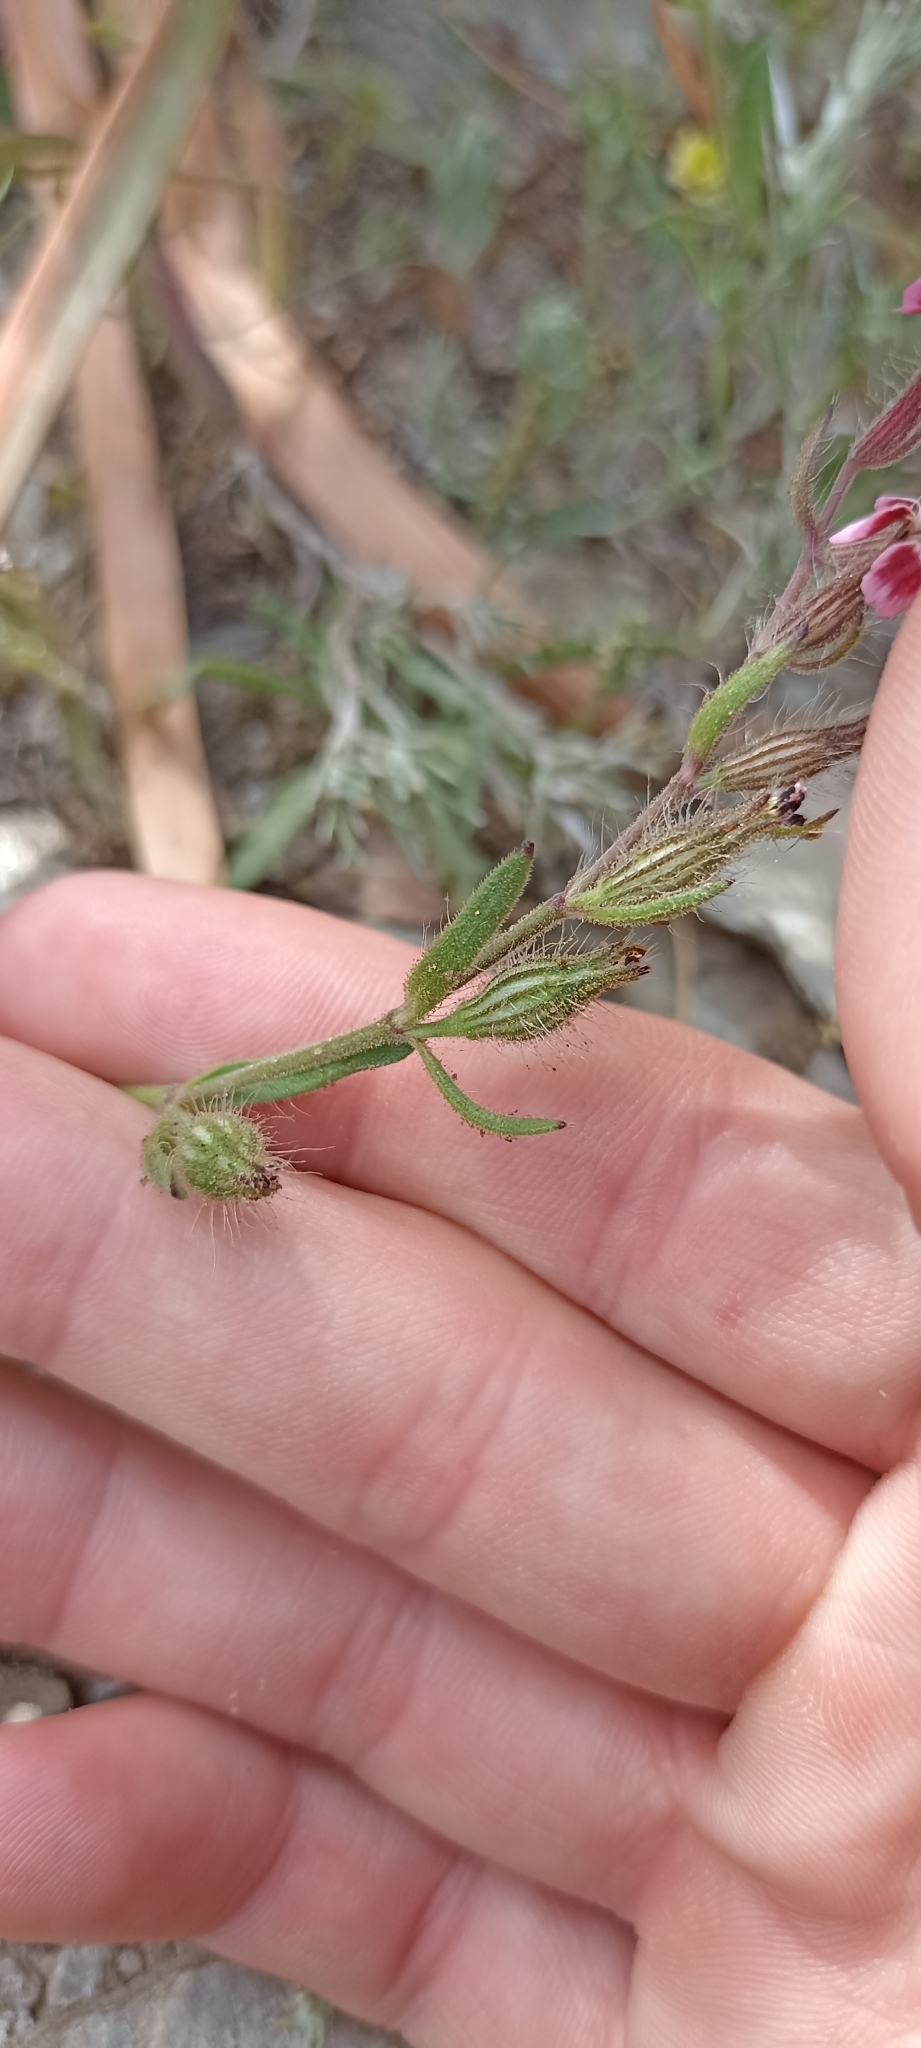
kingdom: Plantae
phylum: Tracheophyta
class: Magnoliopsida
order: Caryophyllales
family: Caryophyllaceae
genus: Silene
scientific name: Silene gallica
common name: Small-flowered catchfly
